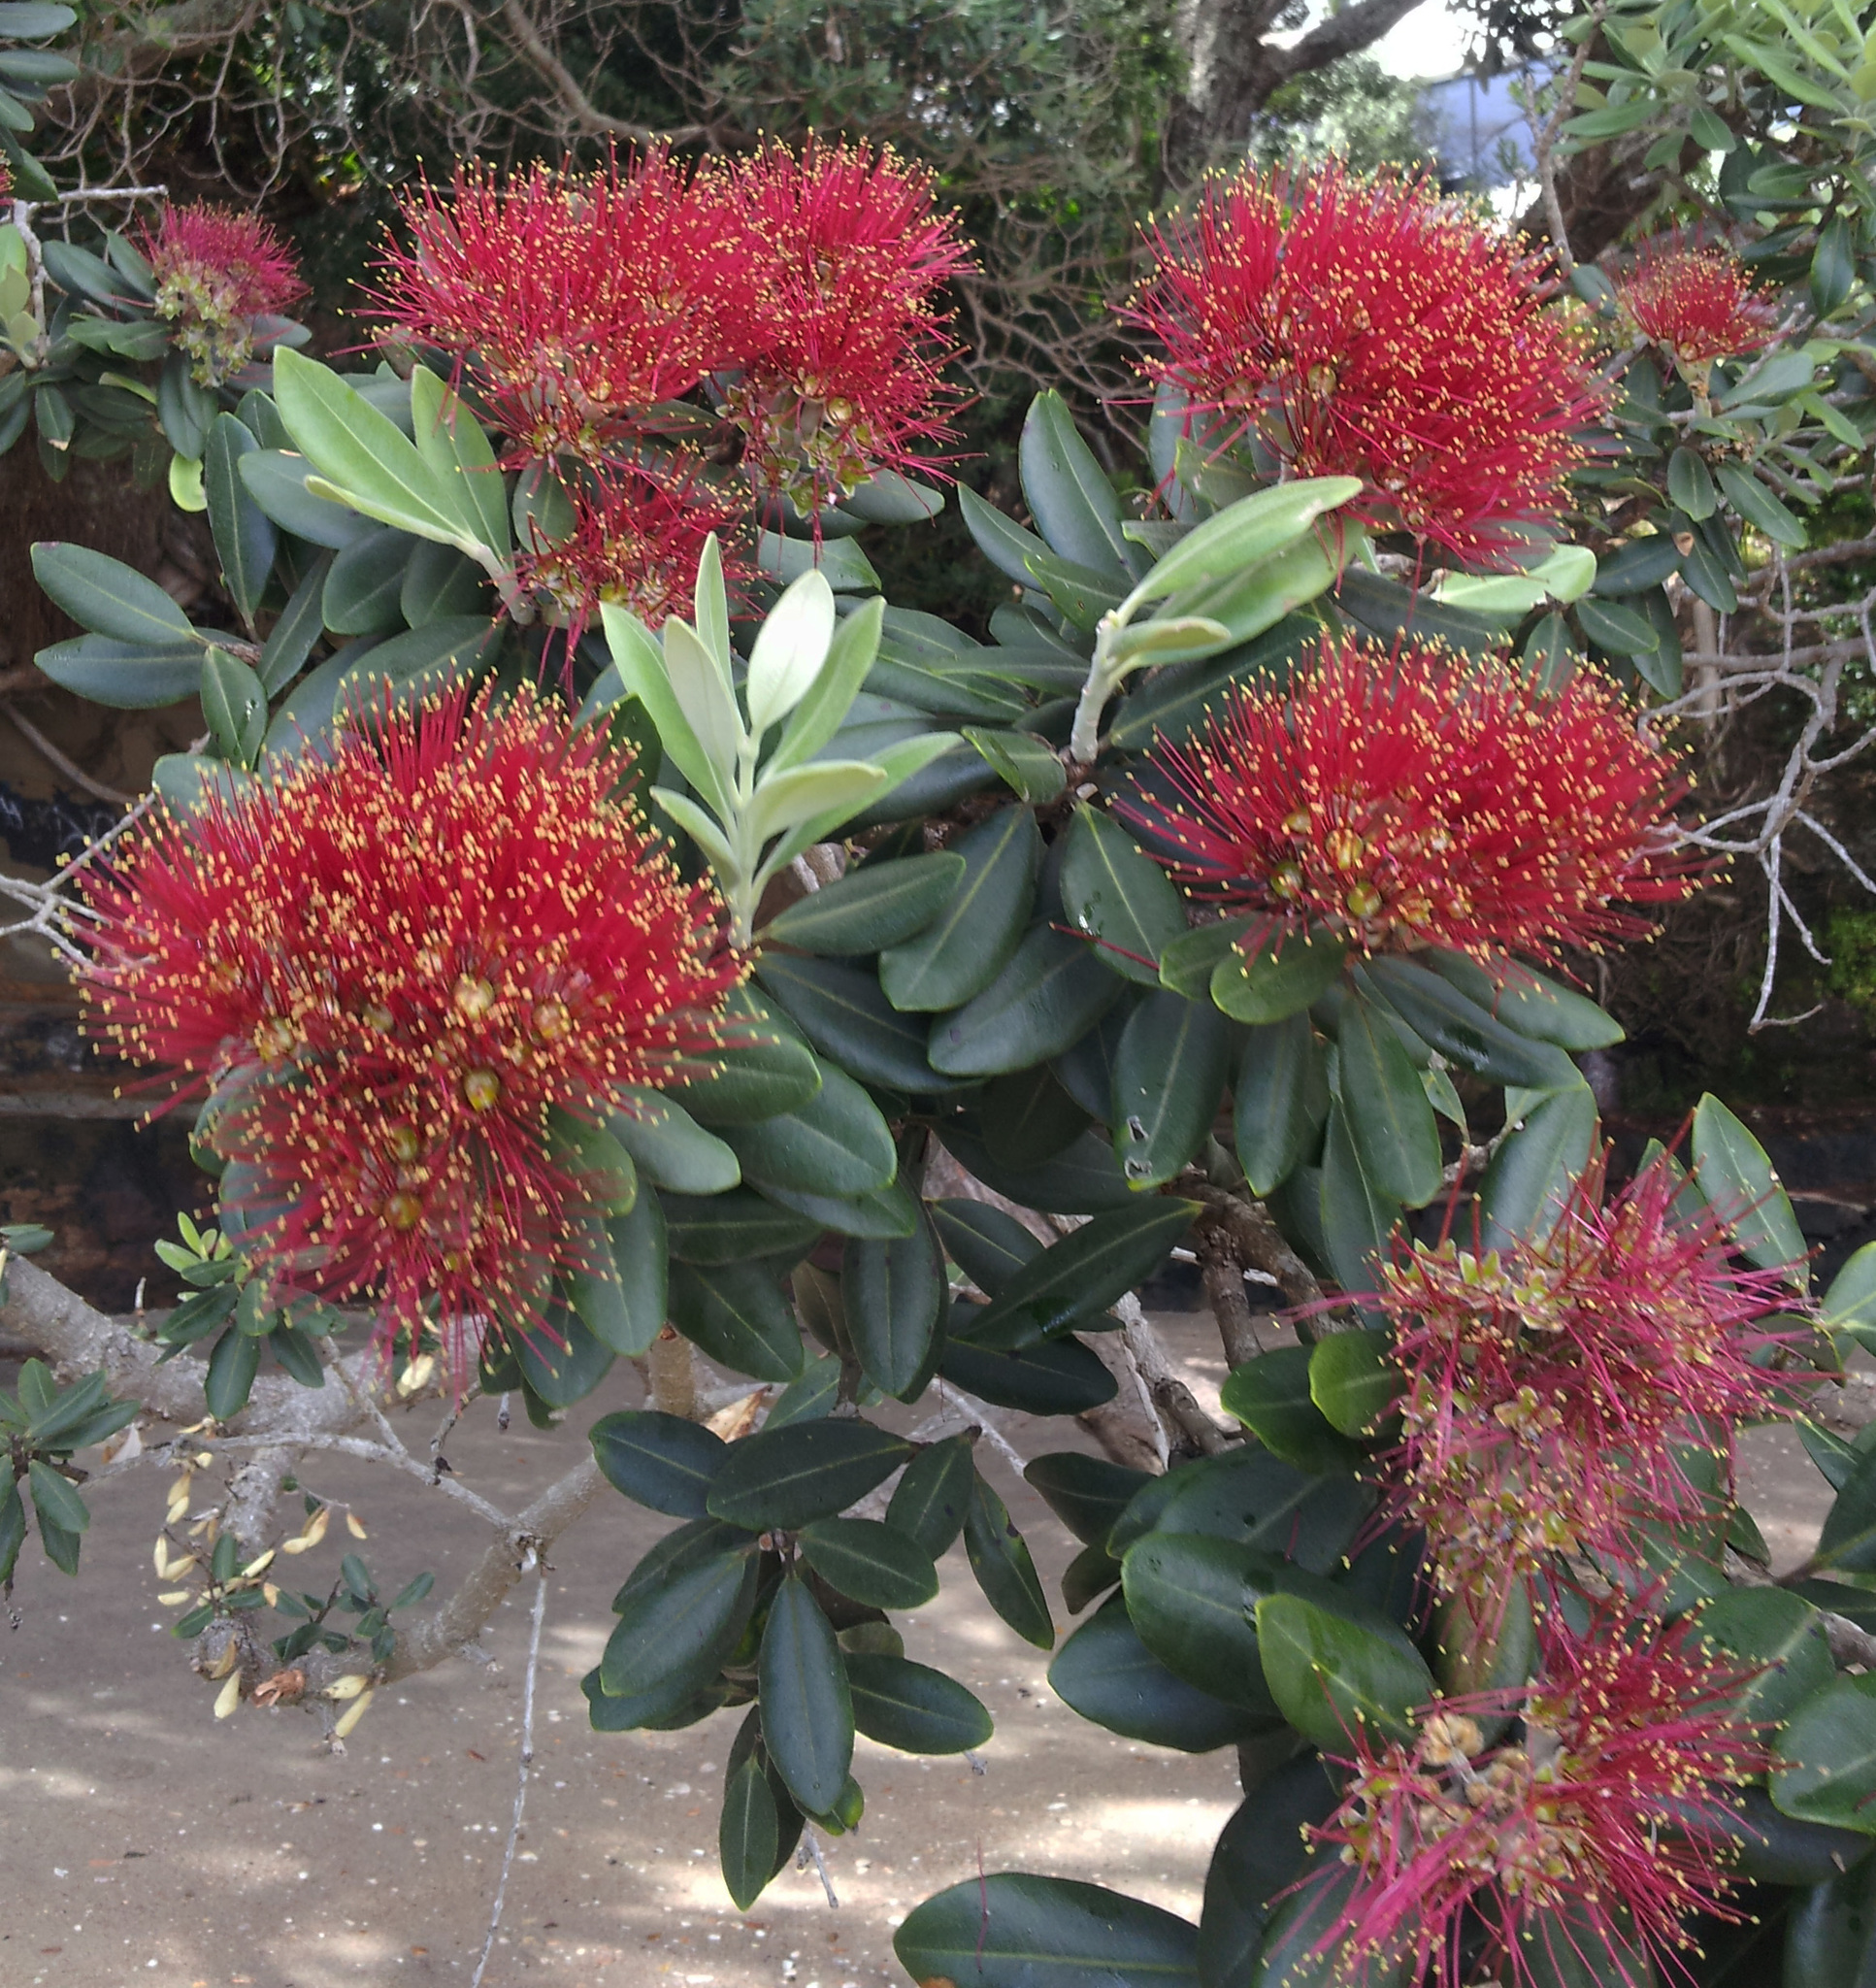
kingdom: Plantae
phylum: Tracheophyta
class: Magnoliopsida
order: Myrtales
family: Myrtaceae
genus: Metrosideros
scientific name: Metrosideros excelsa
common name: New zealand christmastree
